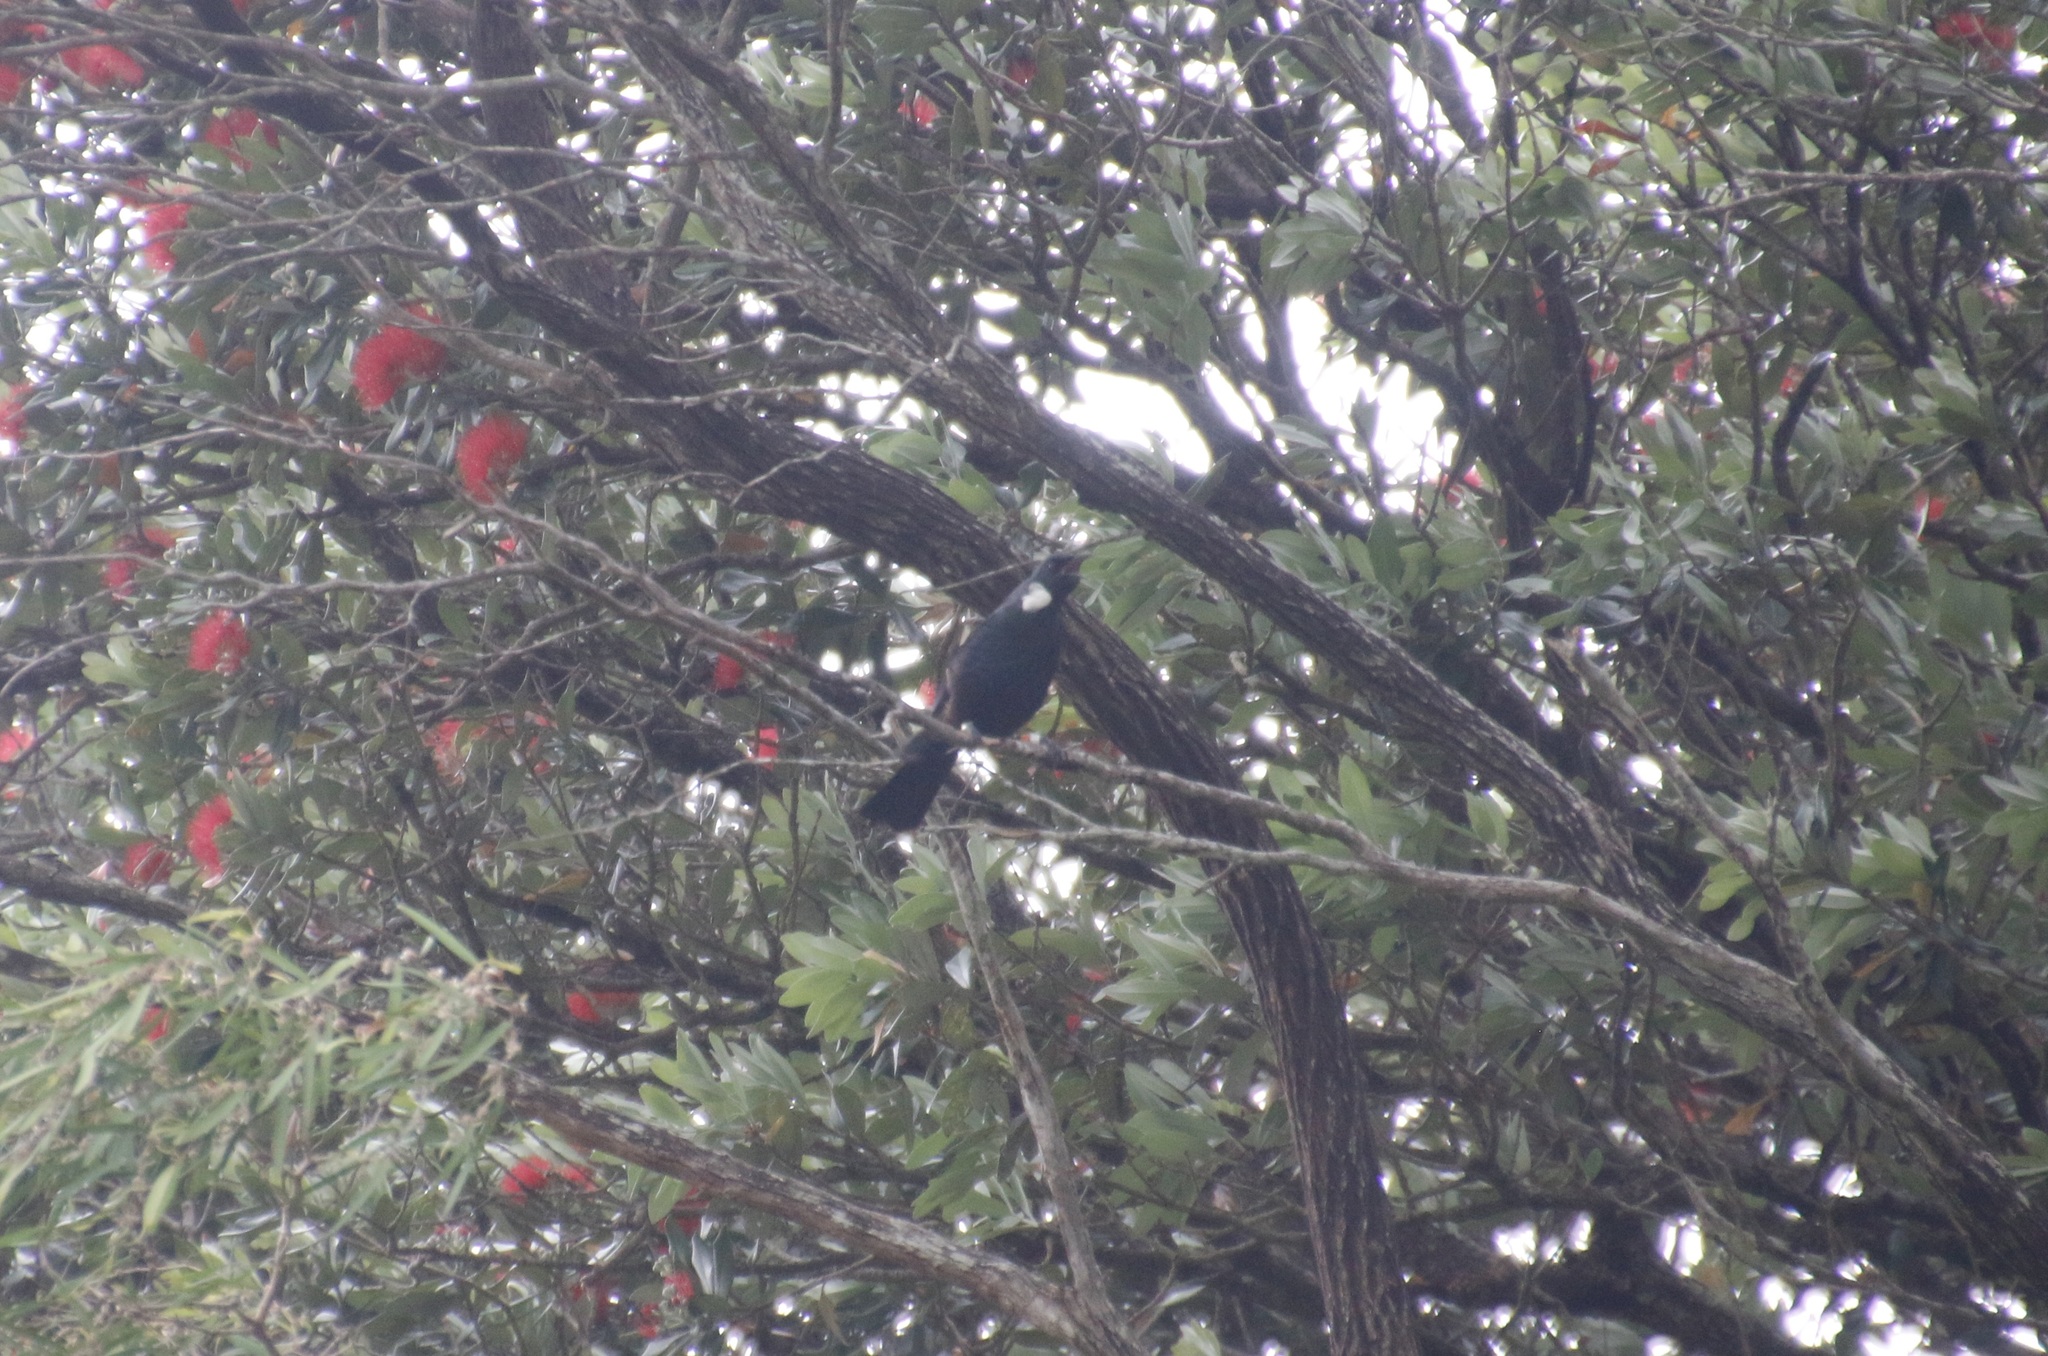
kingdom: Animalia
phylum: Chordata
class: Aves
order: Passeriformes
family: Meliphagidae
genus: Prosthemadera
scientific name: Prosthemadera novaeseelandiae
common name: Tui
